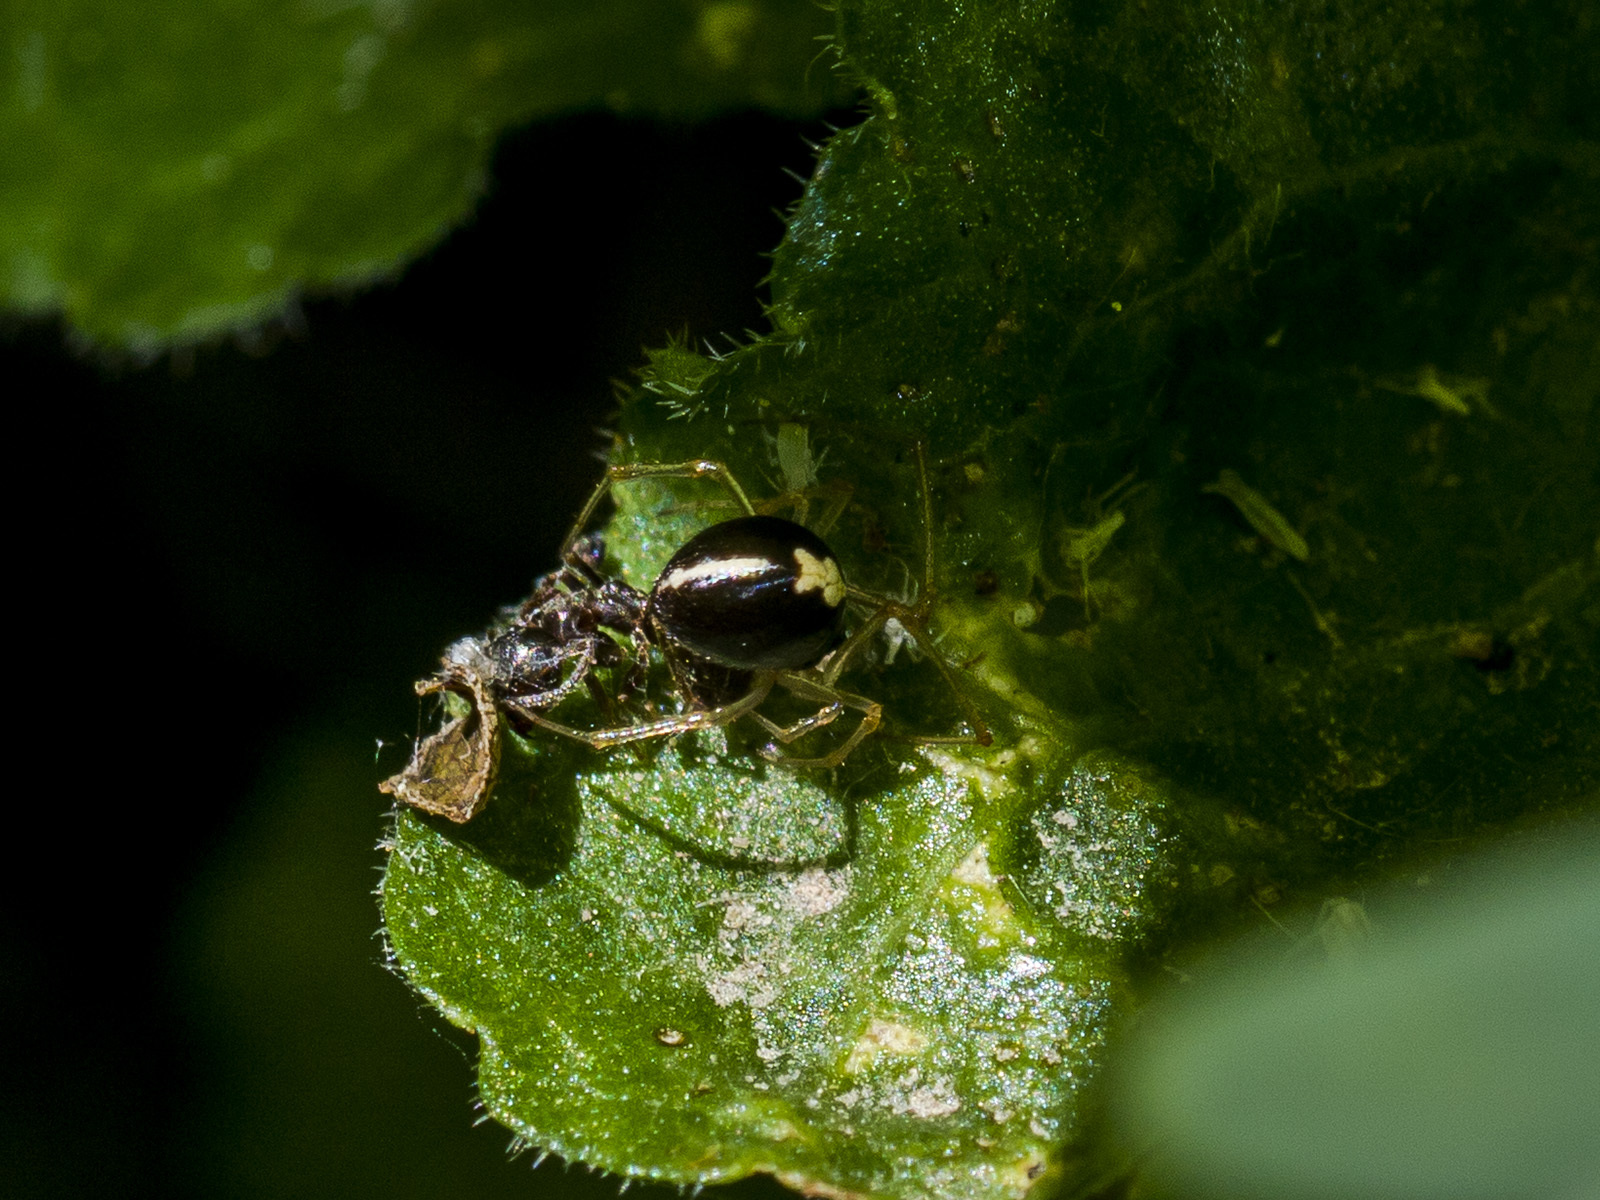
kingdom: Animalia
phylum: Arthropoda
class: Arachnida
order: Araneae
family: Theridiidae
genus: Neottiura
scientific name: Neottiura bimaculata
